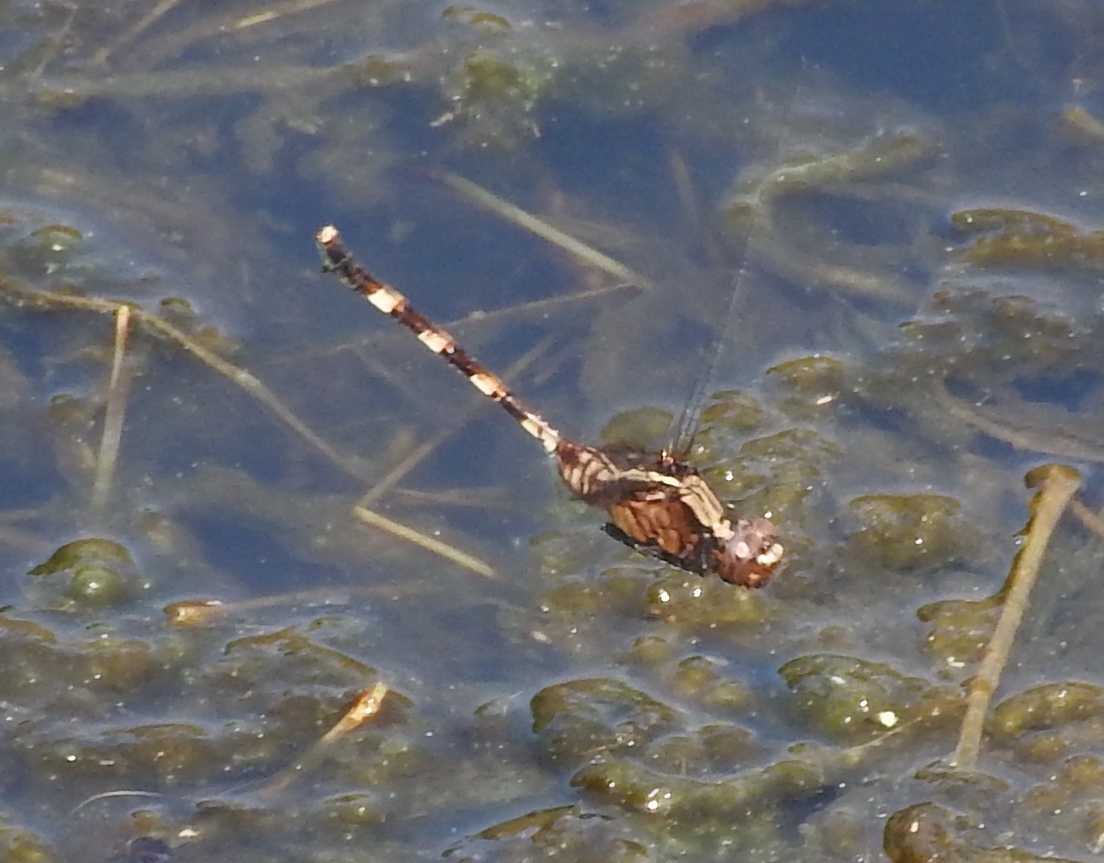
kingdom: Animalia
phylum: Arthropoda
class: Insecta
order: Odonata
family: Libellulidae
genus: Erythemis
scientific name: Erythemis plebeja
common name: Pin-tailed pondhawk
